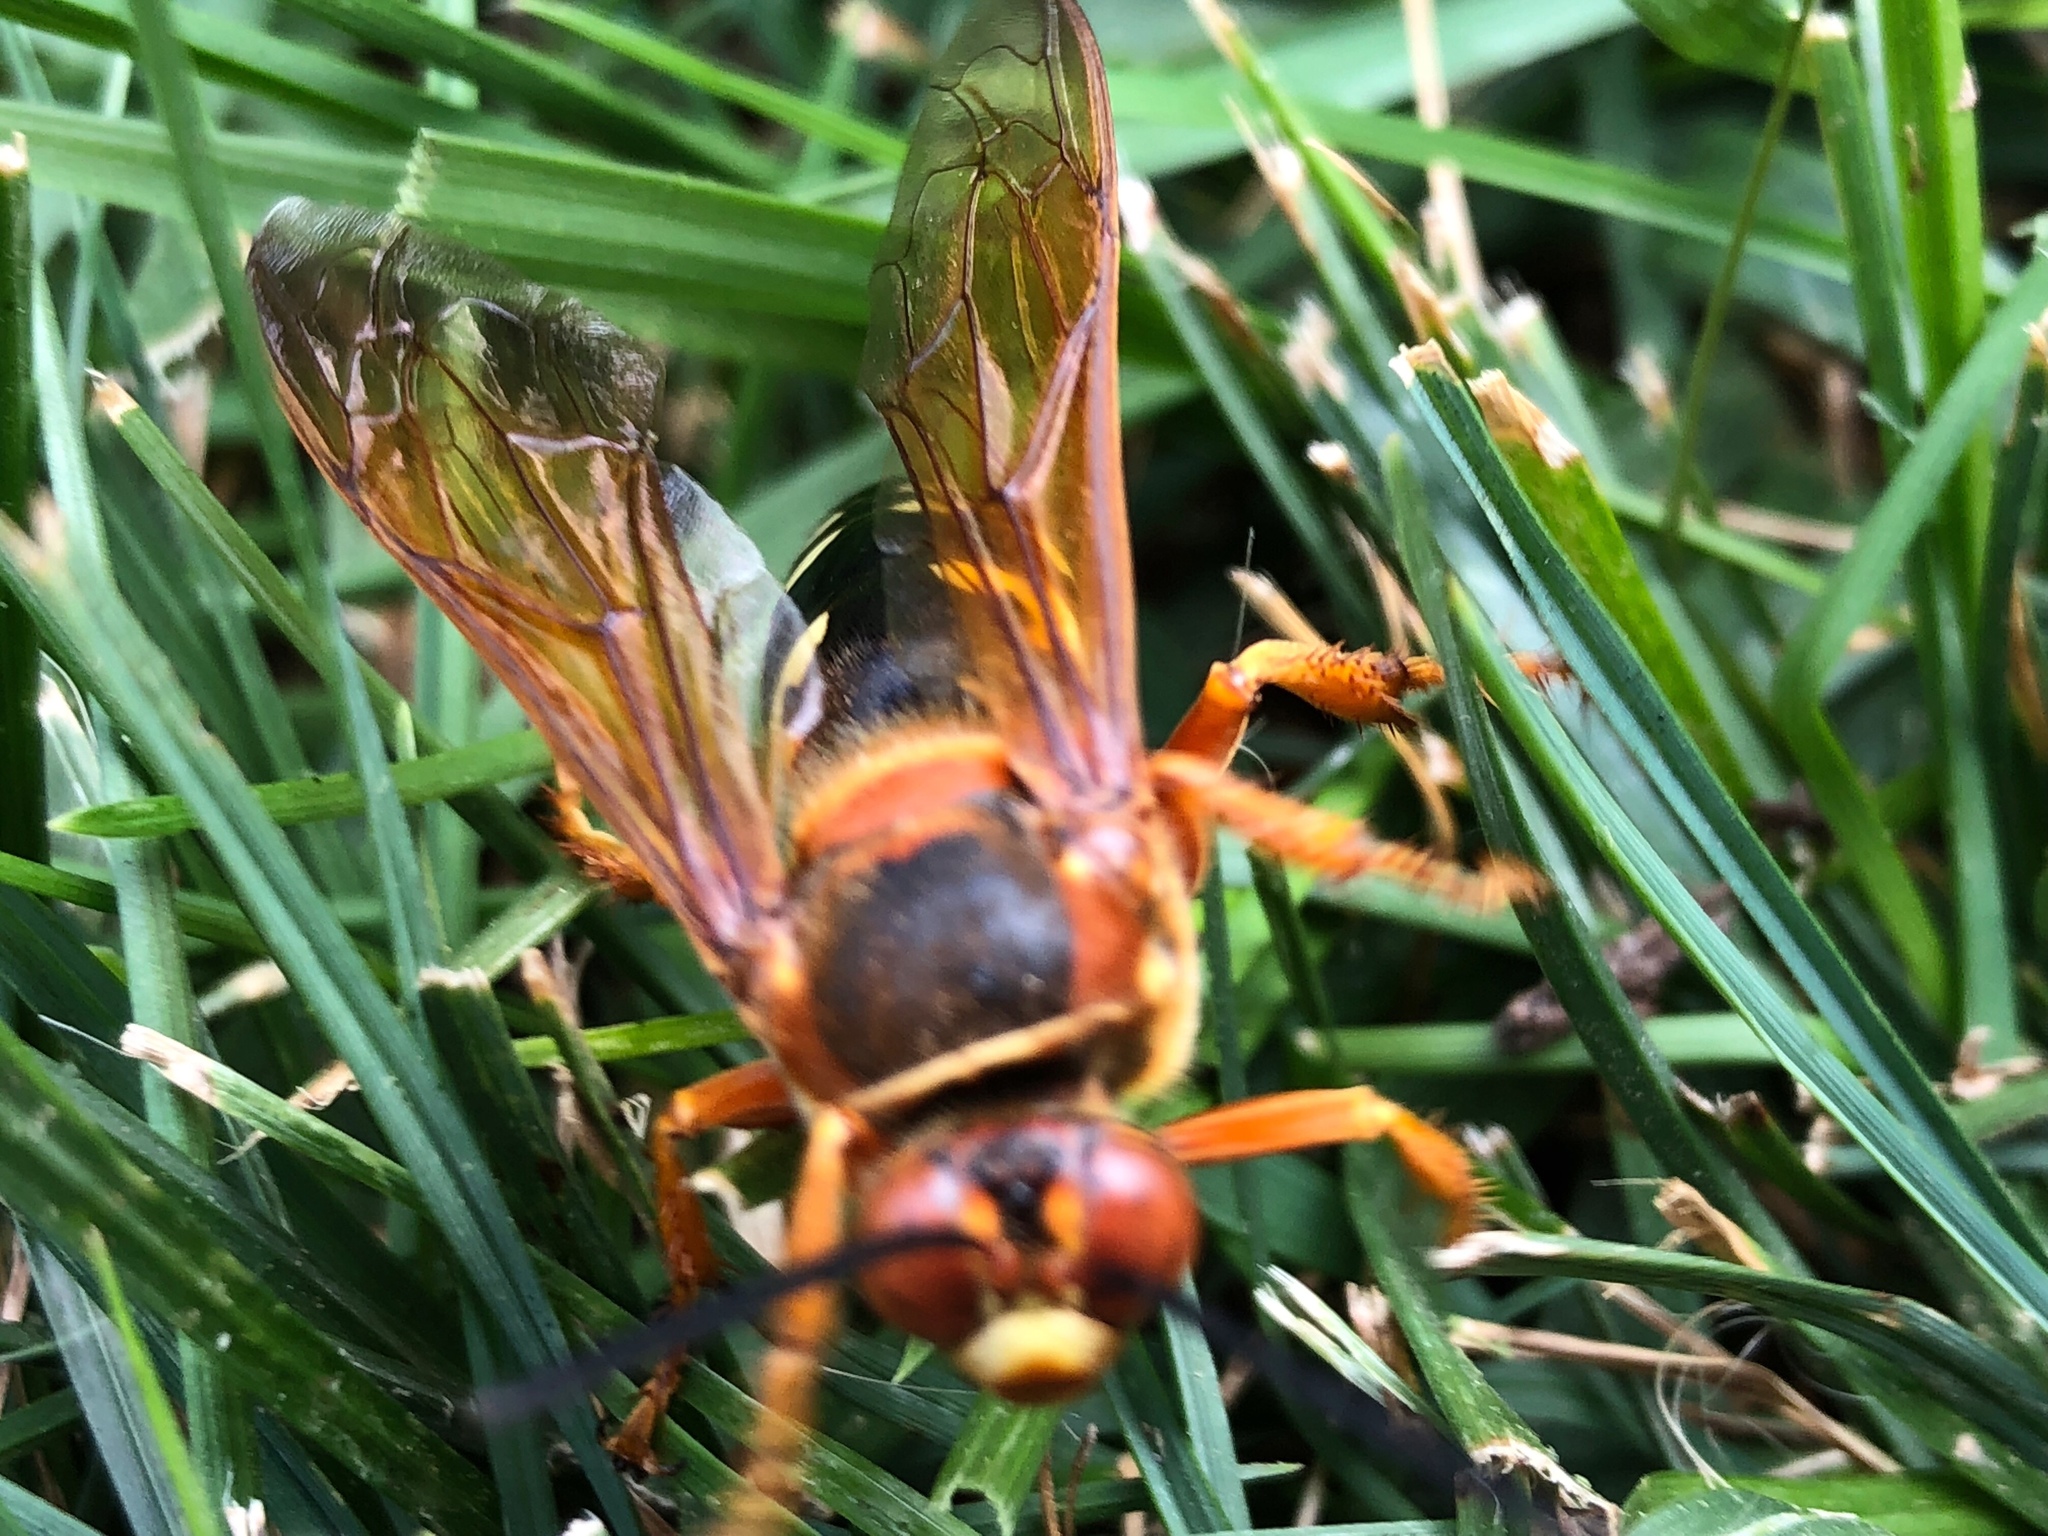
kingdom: Animalia
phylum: Arthropoda
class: Insecta
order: Hymenoptera
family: Crabronidae
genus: Sphecius
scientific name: Sphecius speciosus
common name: Cicada killer
